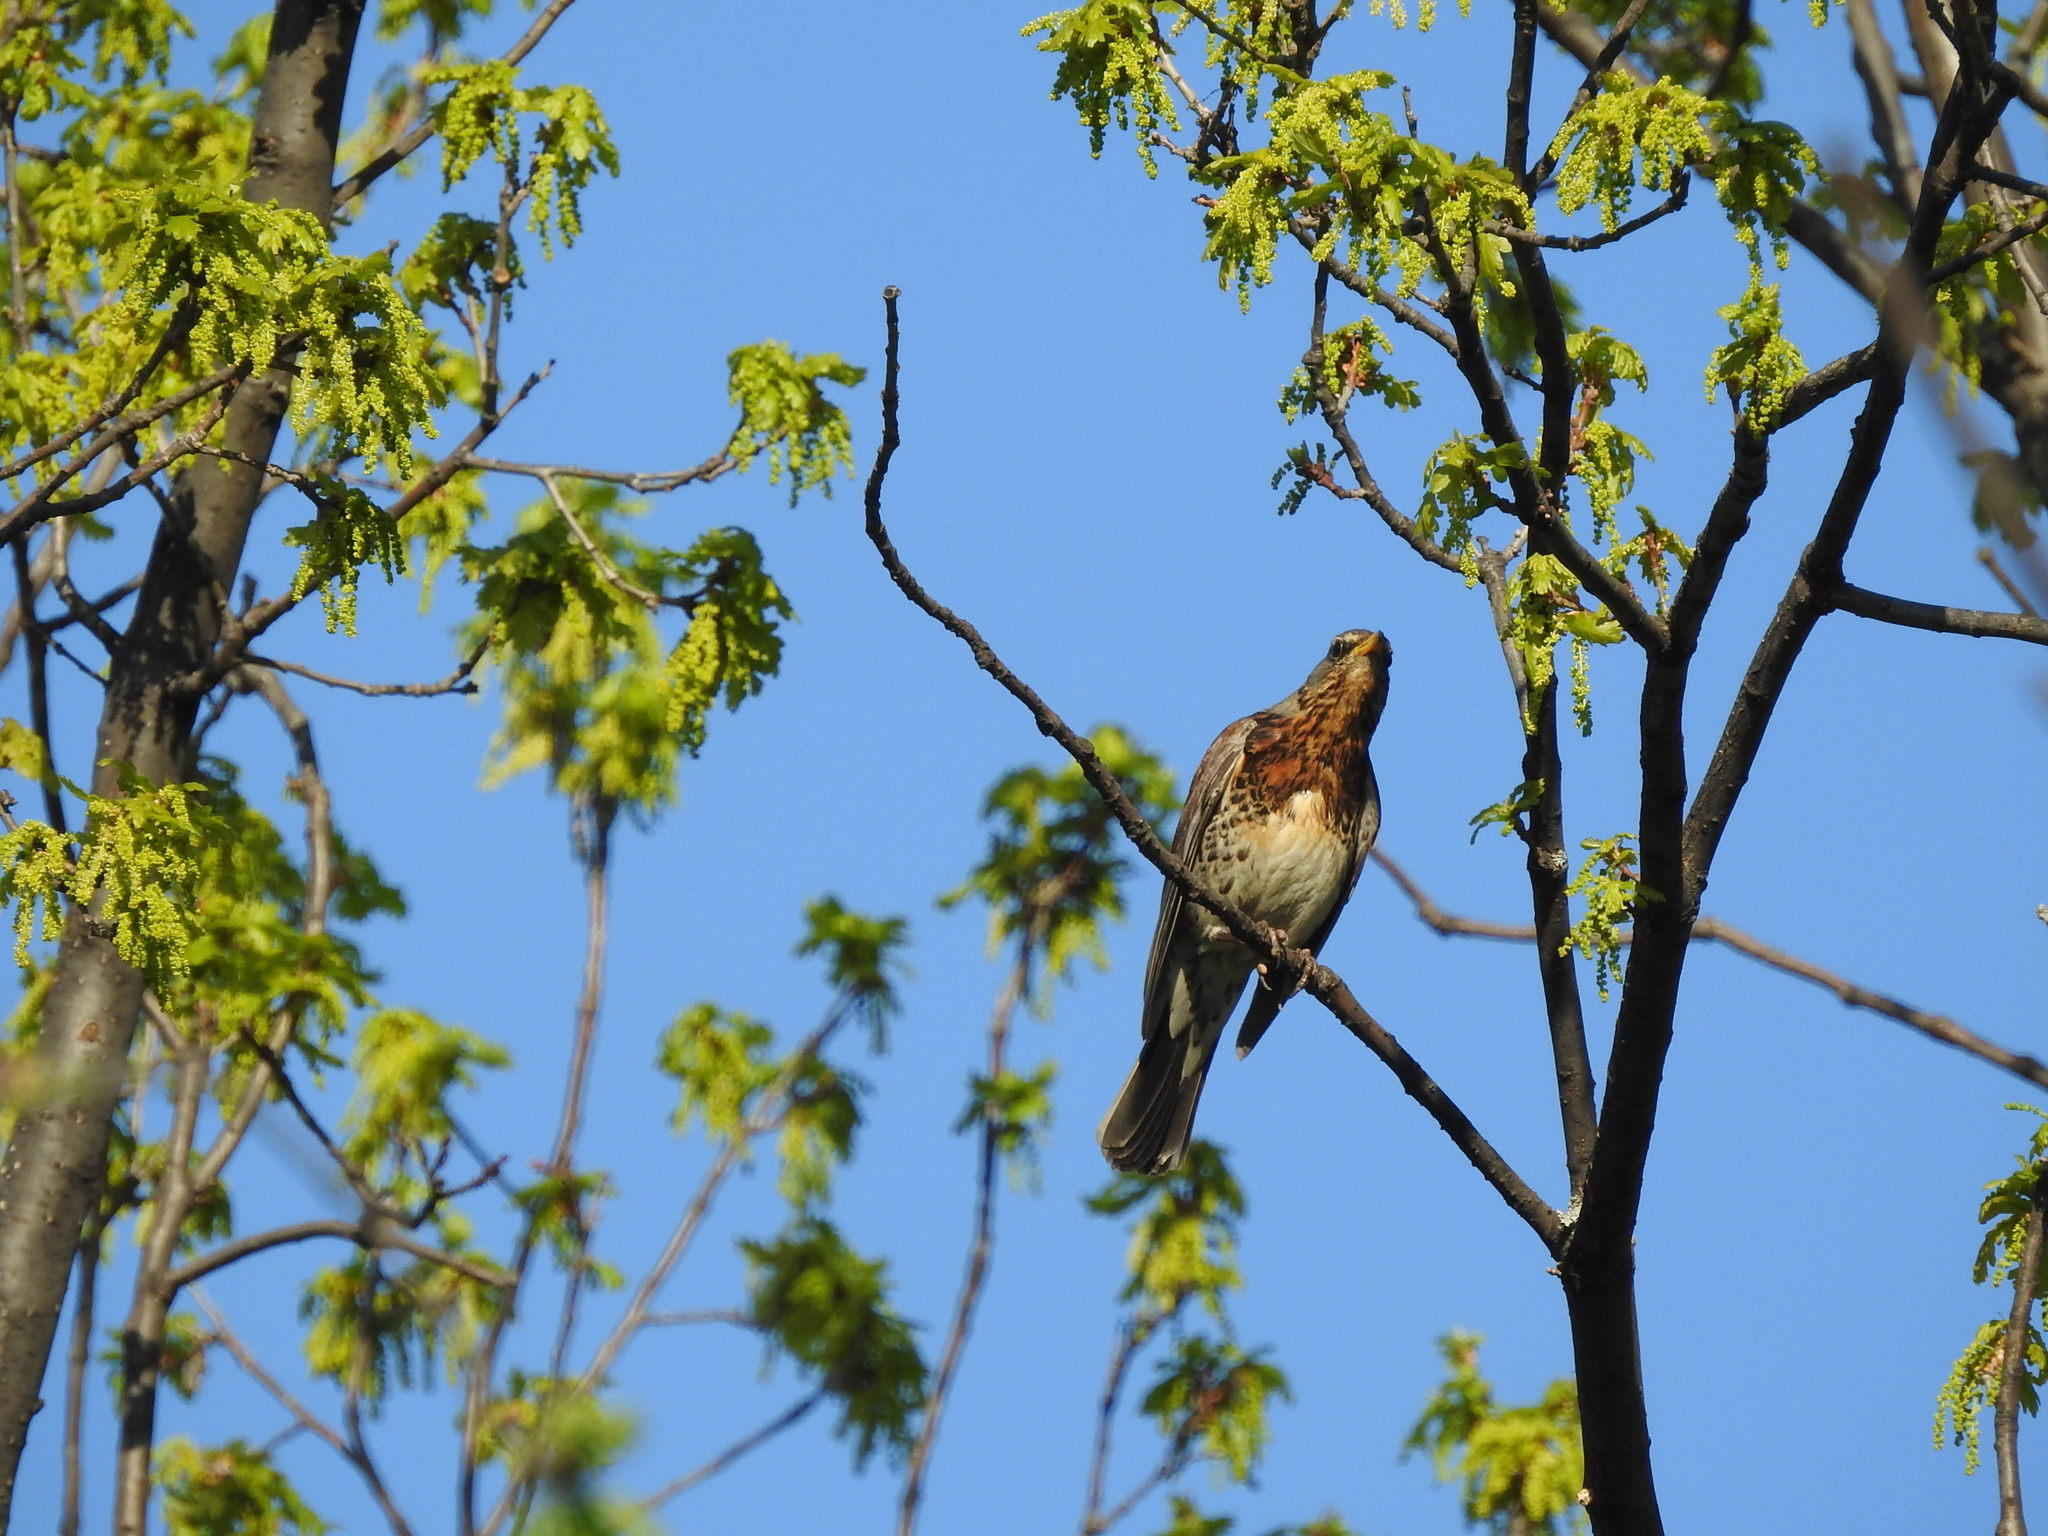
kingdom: Animalia
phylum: Chordata
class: Aves
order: Passeriformes
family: Turdidae
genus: Turdus
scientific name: Turdus pilaris
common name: Fieldfare
